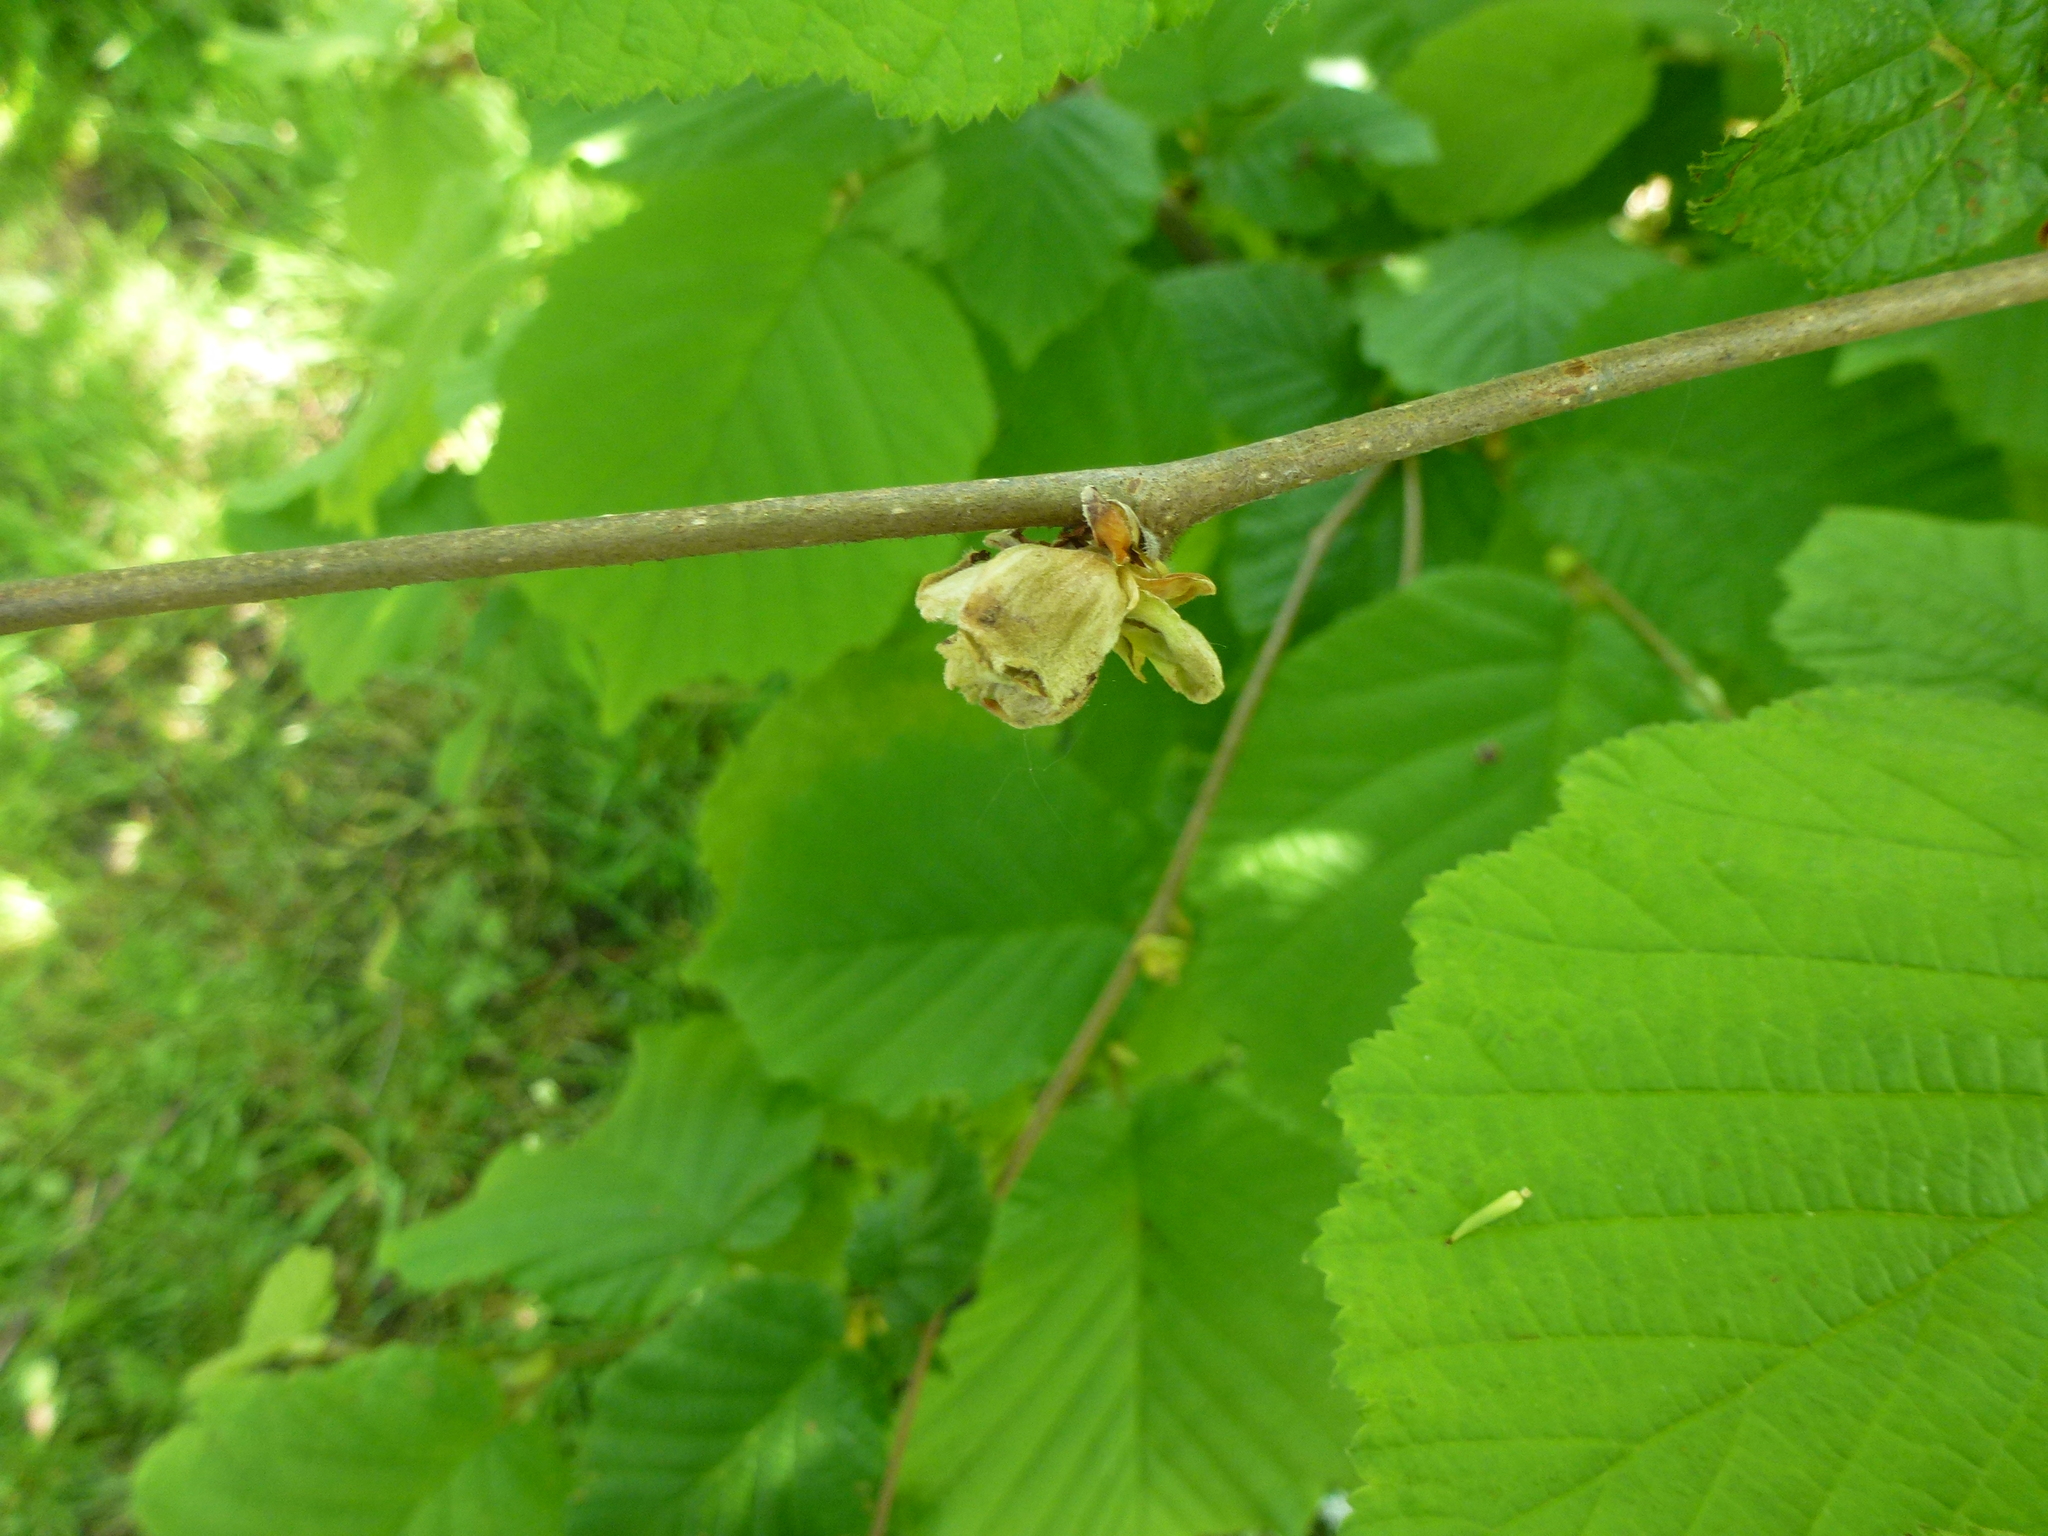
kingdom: Animalia
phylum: Arthropoda
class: Arachnida
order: Trombidiformes
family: Phytoptidae
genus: Phytoptus
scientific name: Phytoptus avellanae
